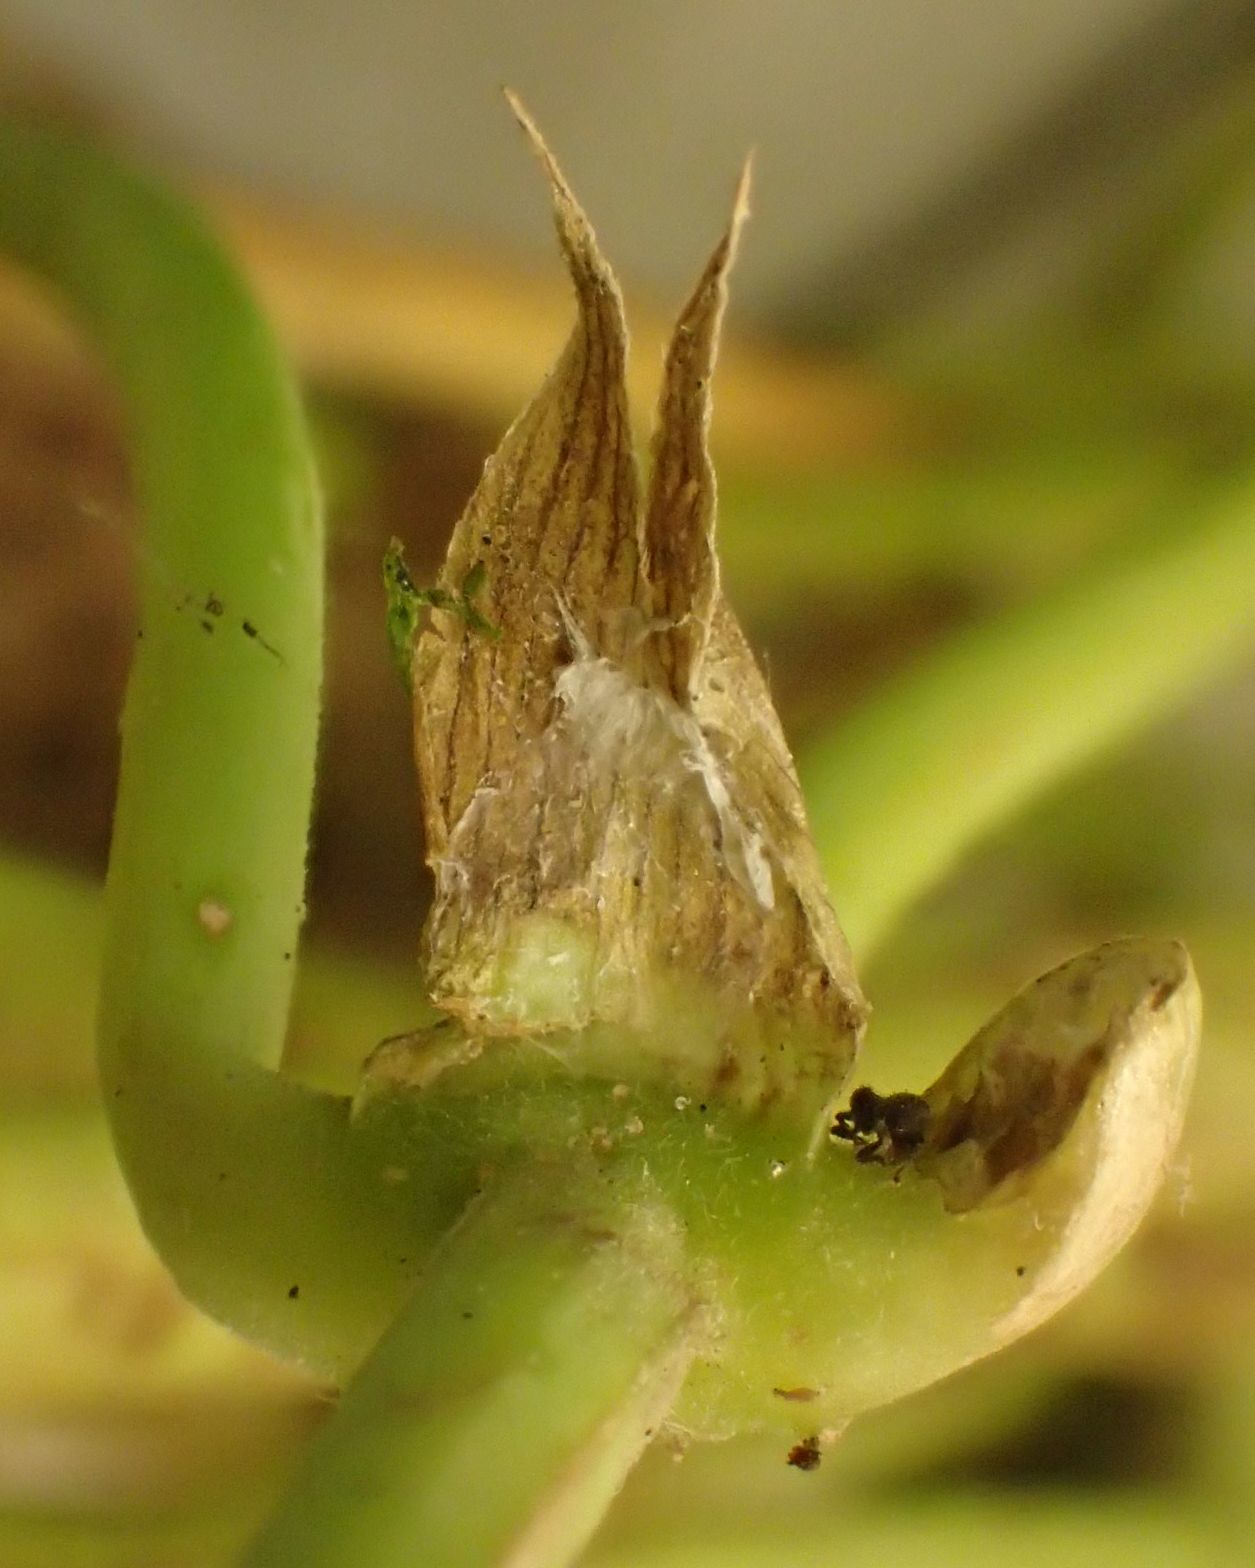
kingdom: Plantae
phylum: Tracheophyta
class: Magnoliopsida
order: Rosales
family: Cannabaceae
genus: Humulus
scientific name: Humulus lupulus
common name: Hop
